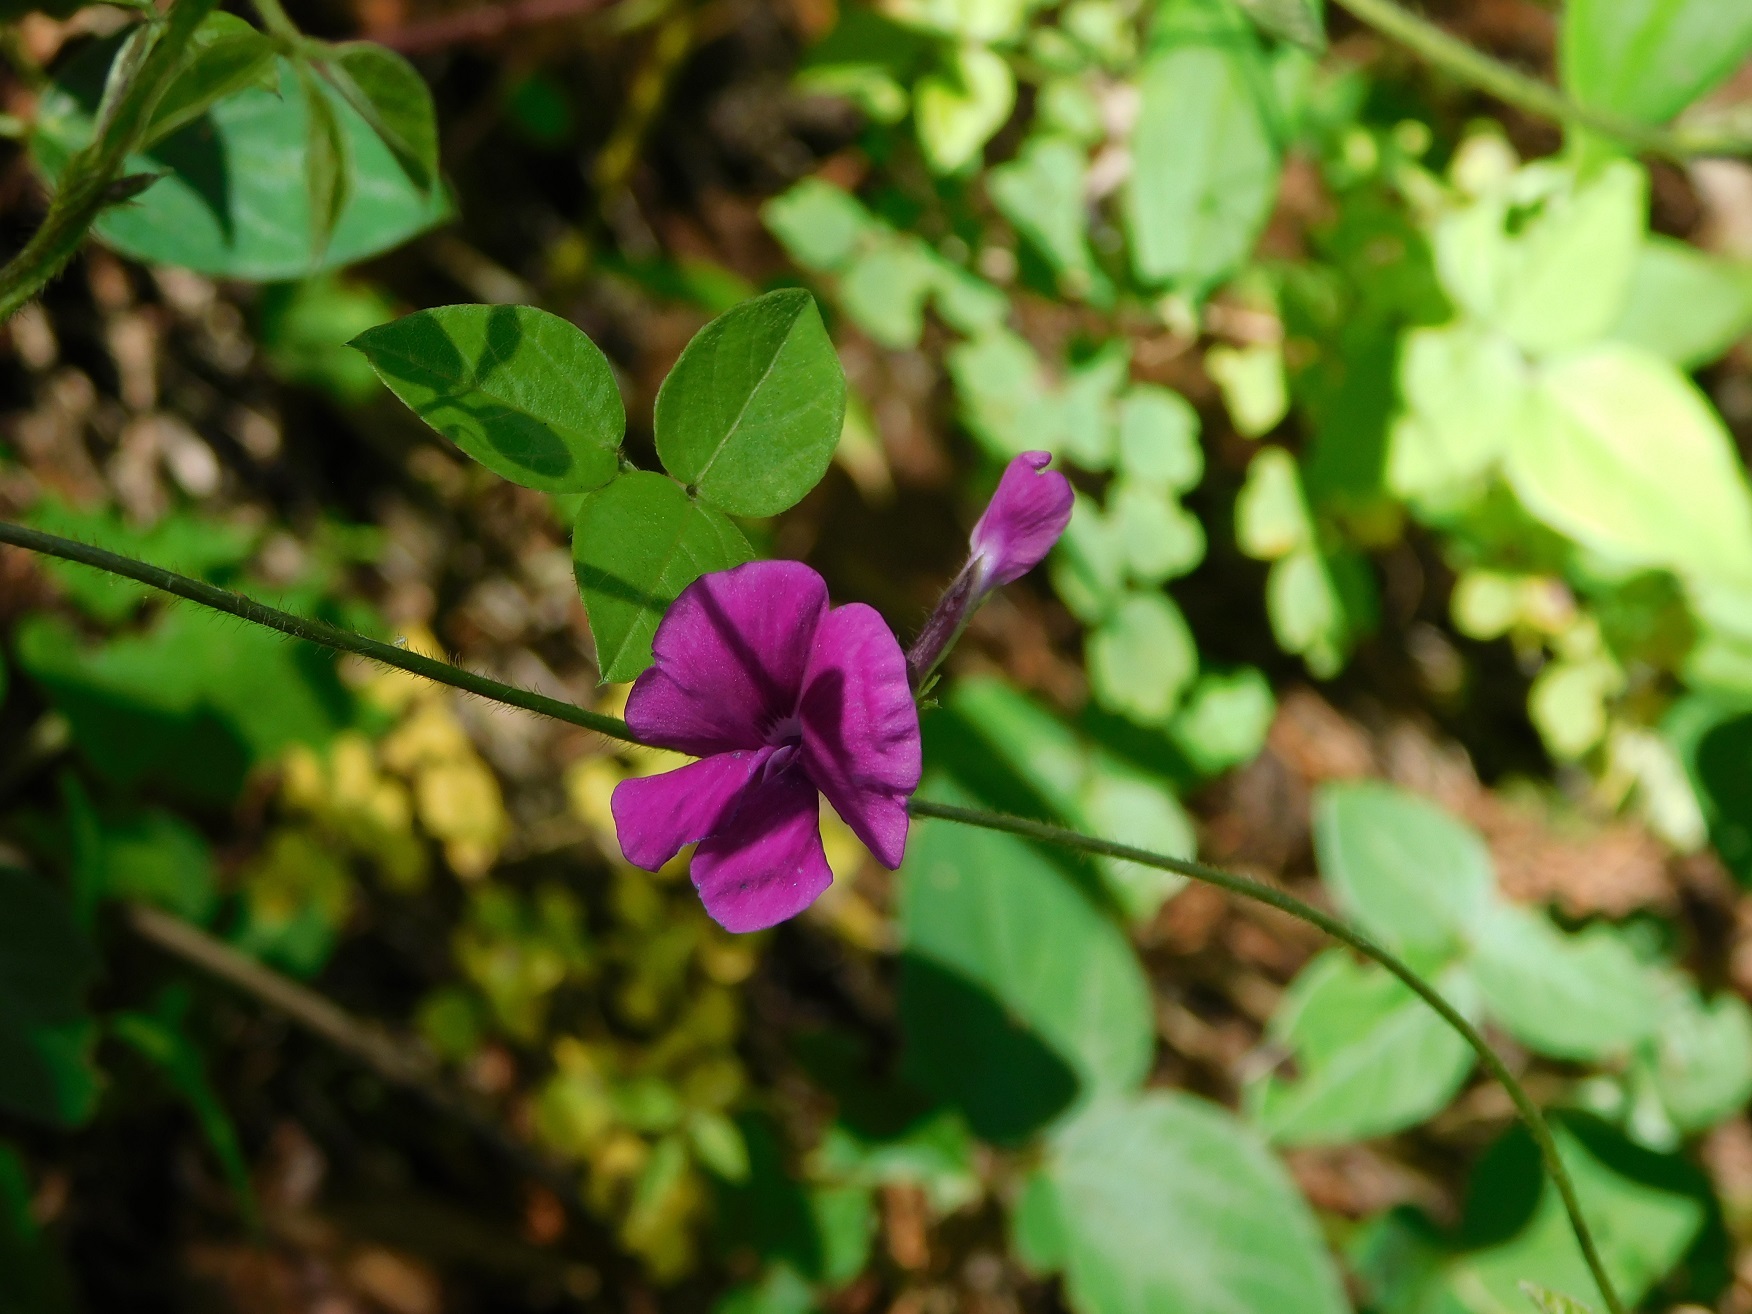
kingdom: Plantae
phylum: Tracheophyta
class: Magnoliopsida
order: Fabales
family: Fabaceae
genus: Cologania
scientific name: Cologania broussonetii
